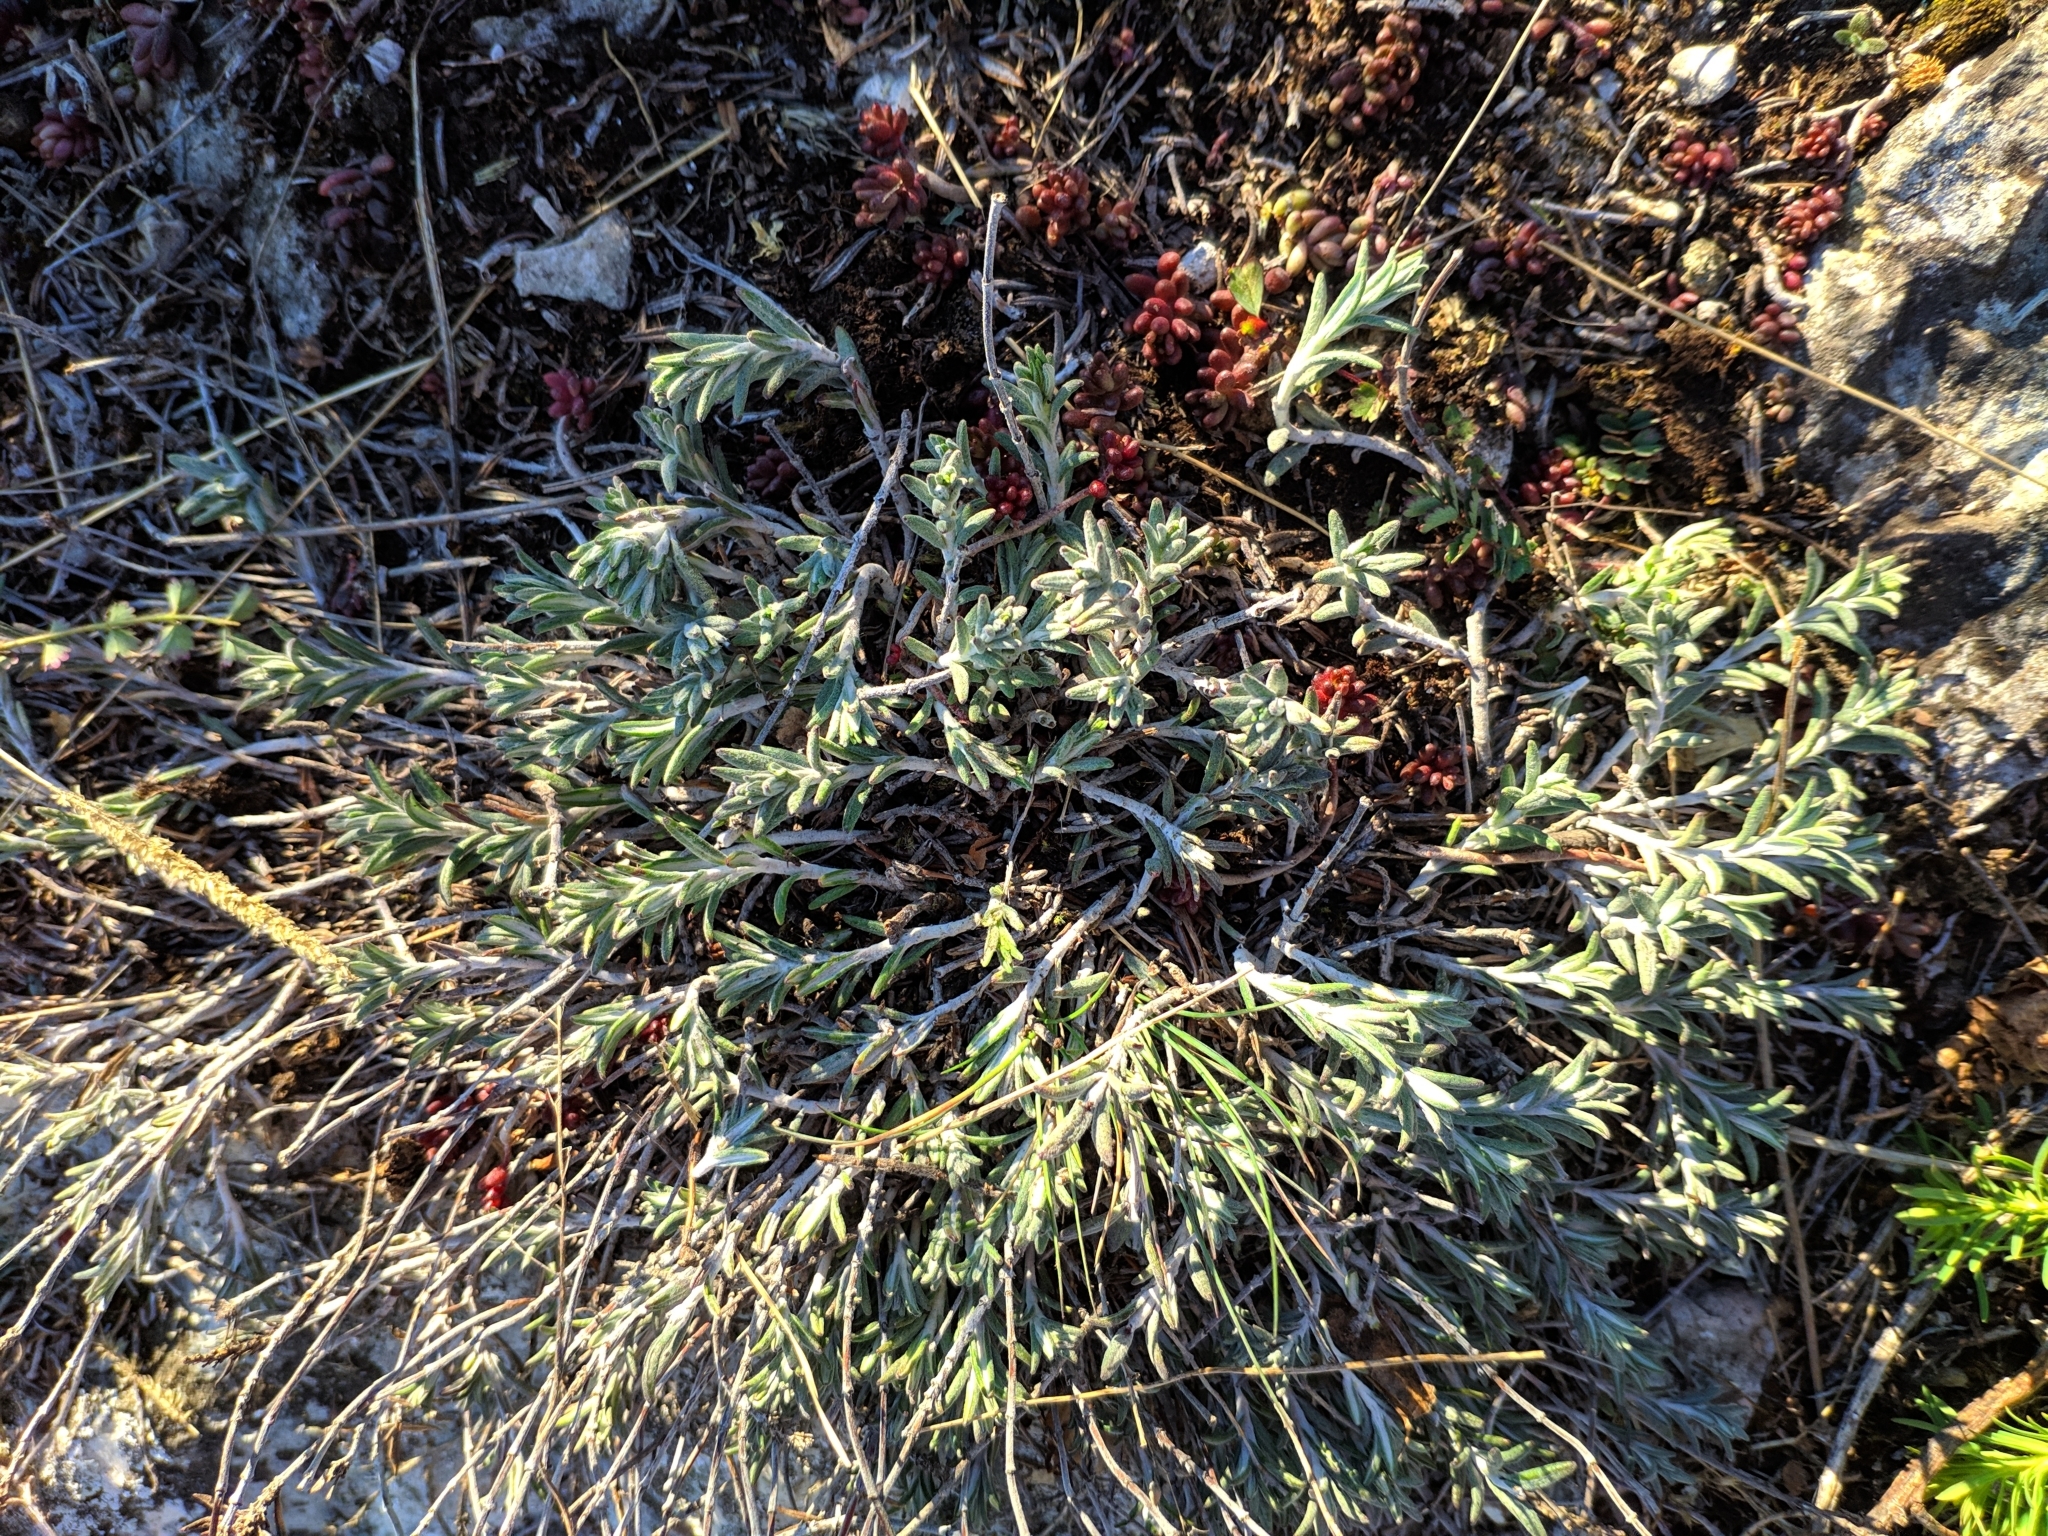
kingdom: Plantae
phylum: Tracheophyta
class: Magnoliopsida
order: Lamiales
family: Lamiaceae
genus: Teucrium
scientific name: Teucrium montanum
